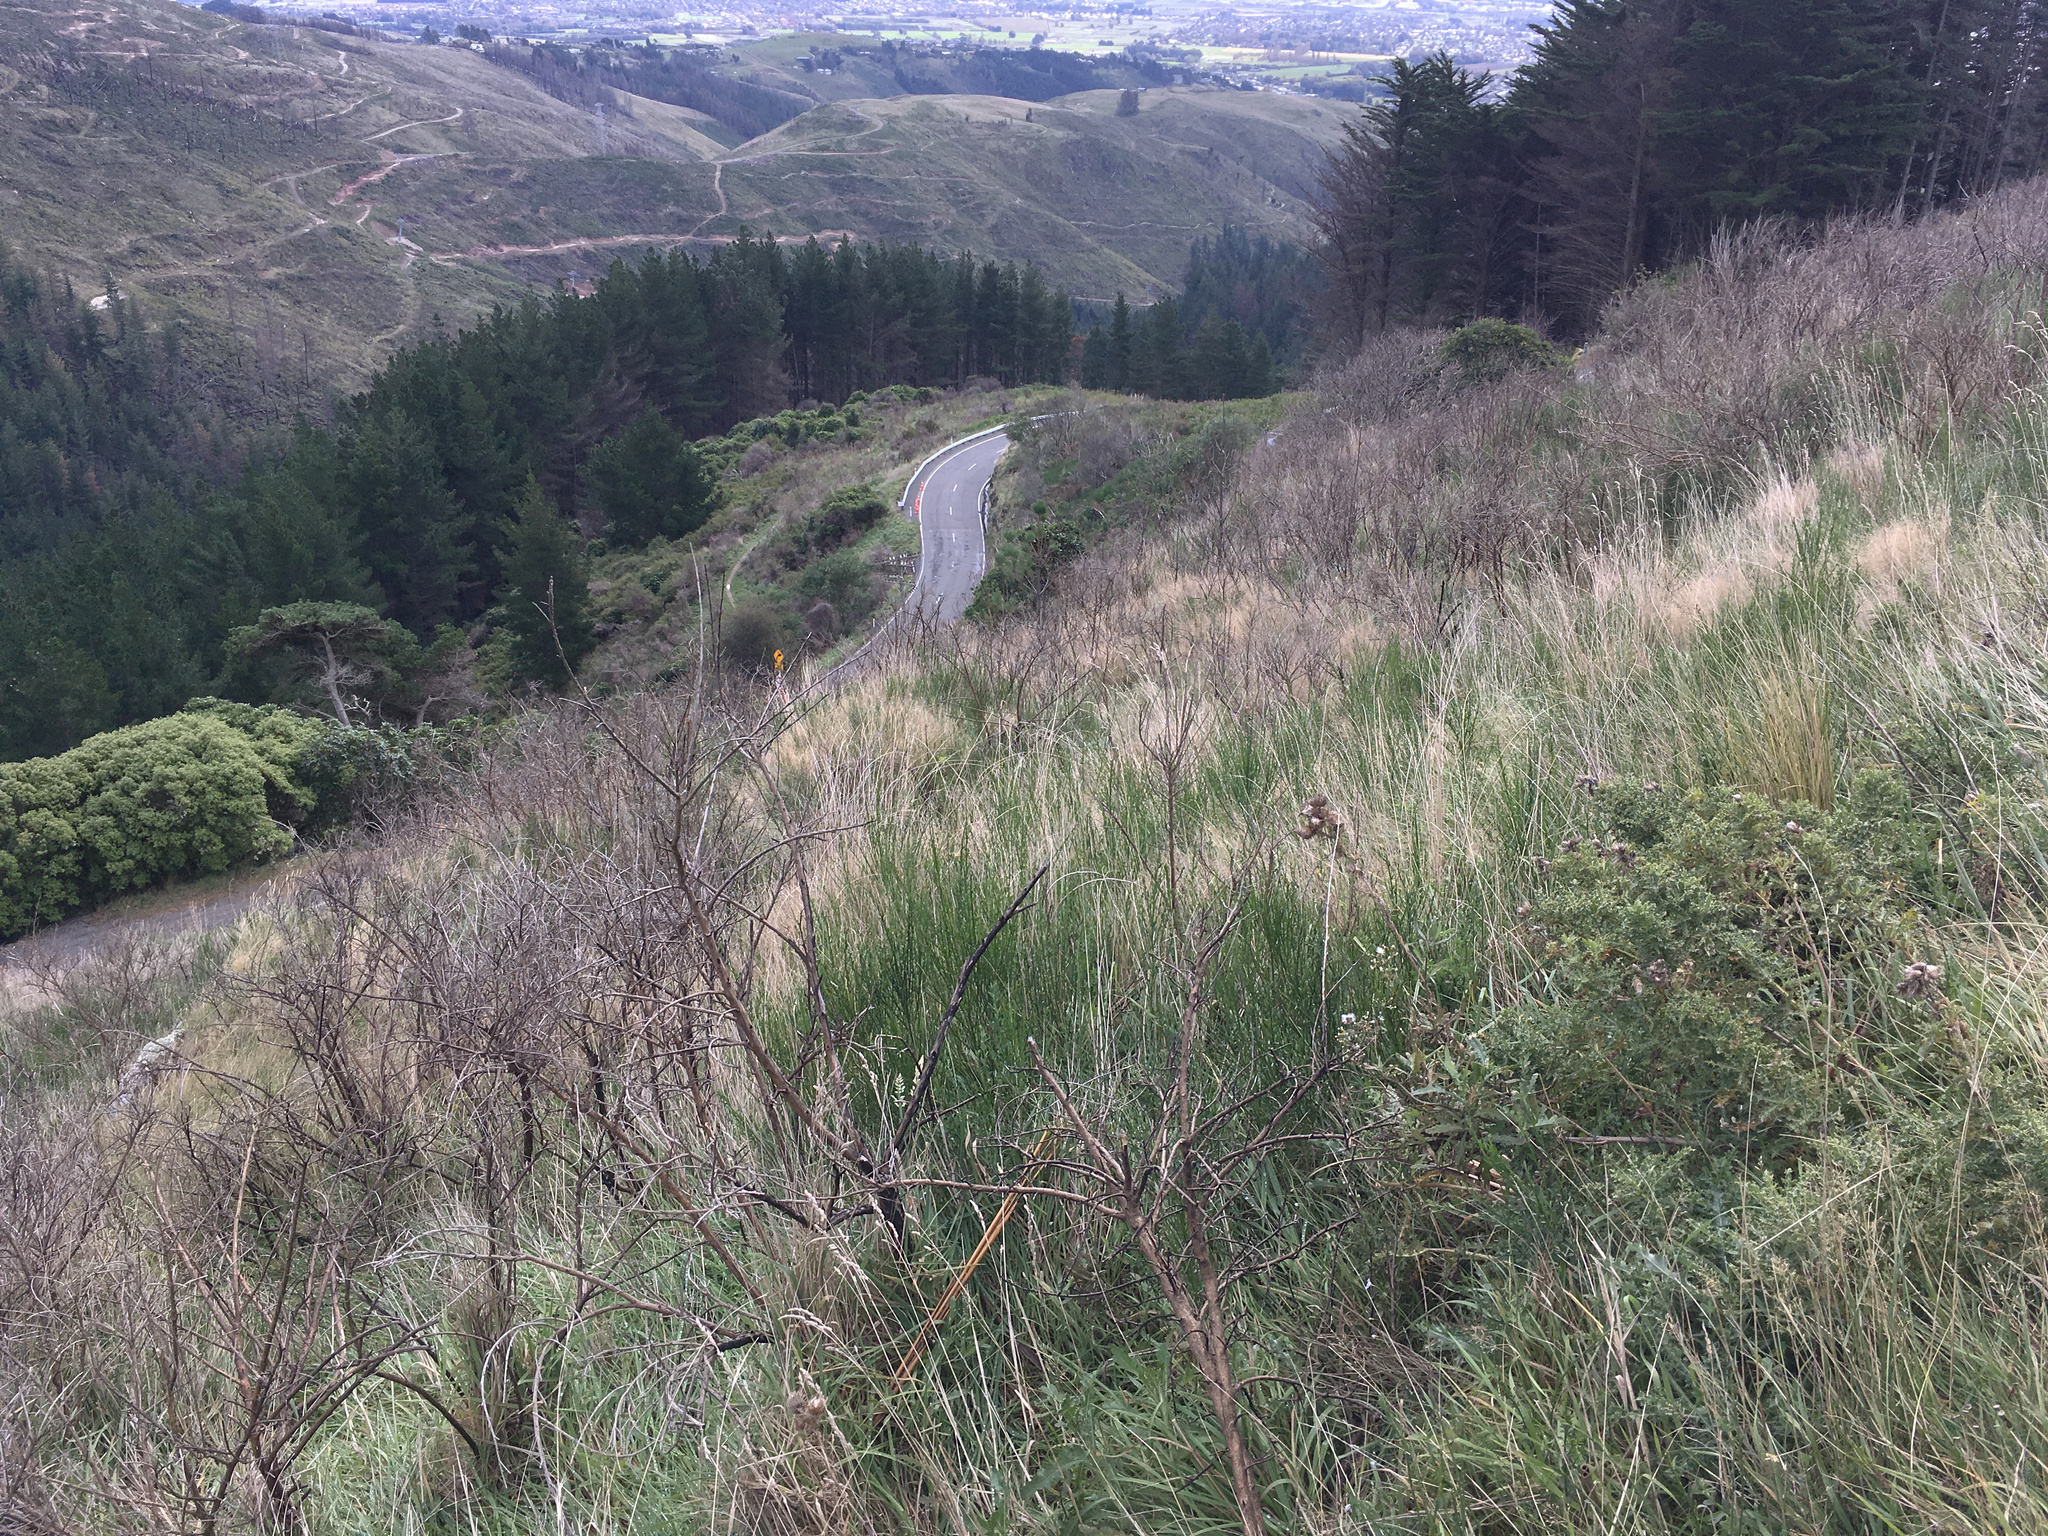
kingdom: Plantae
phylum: Tracheophyta
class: Magnoliopsida
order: Fabales
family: Fabaceae
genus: Cytisus
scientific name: Cytisus scoparius
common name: Scotch broom
